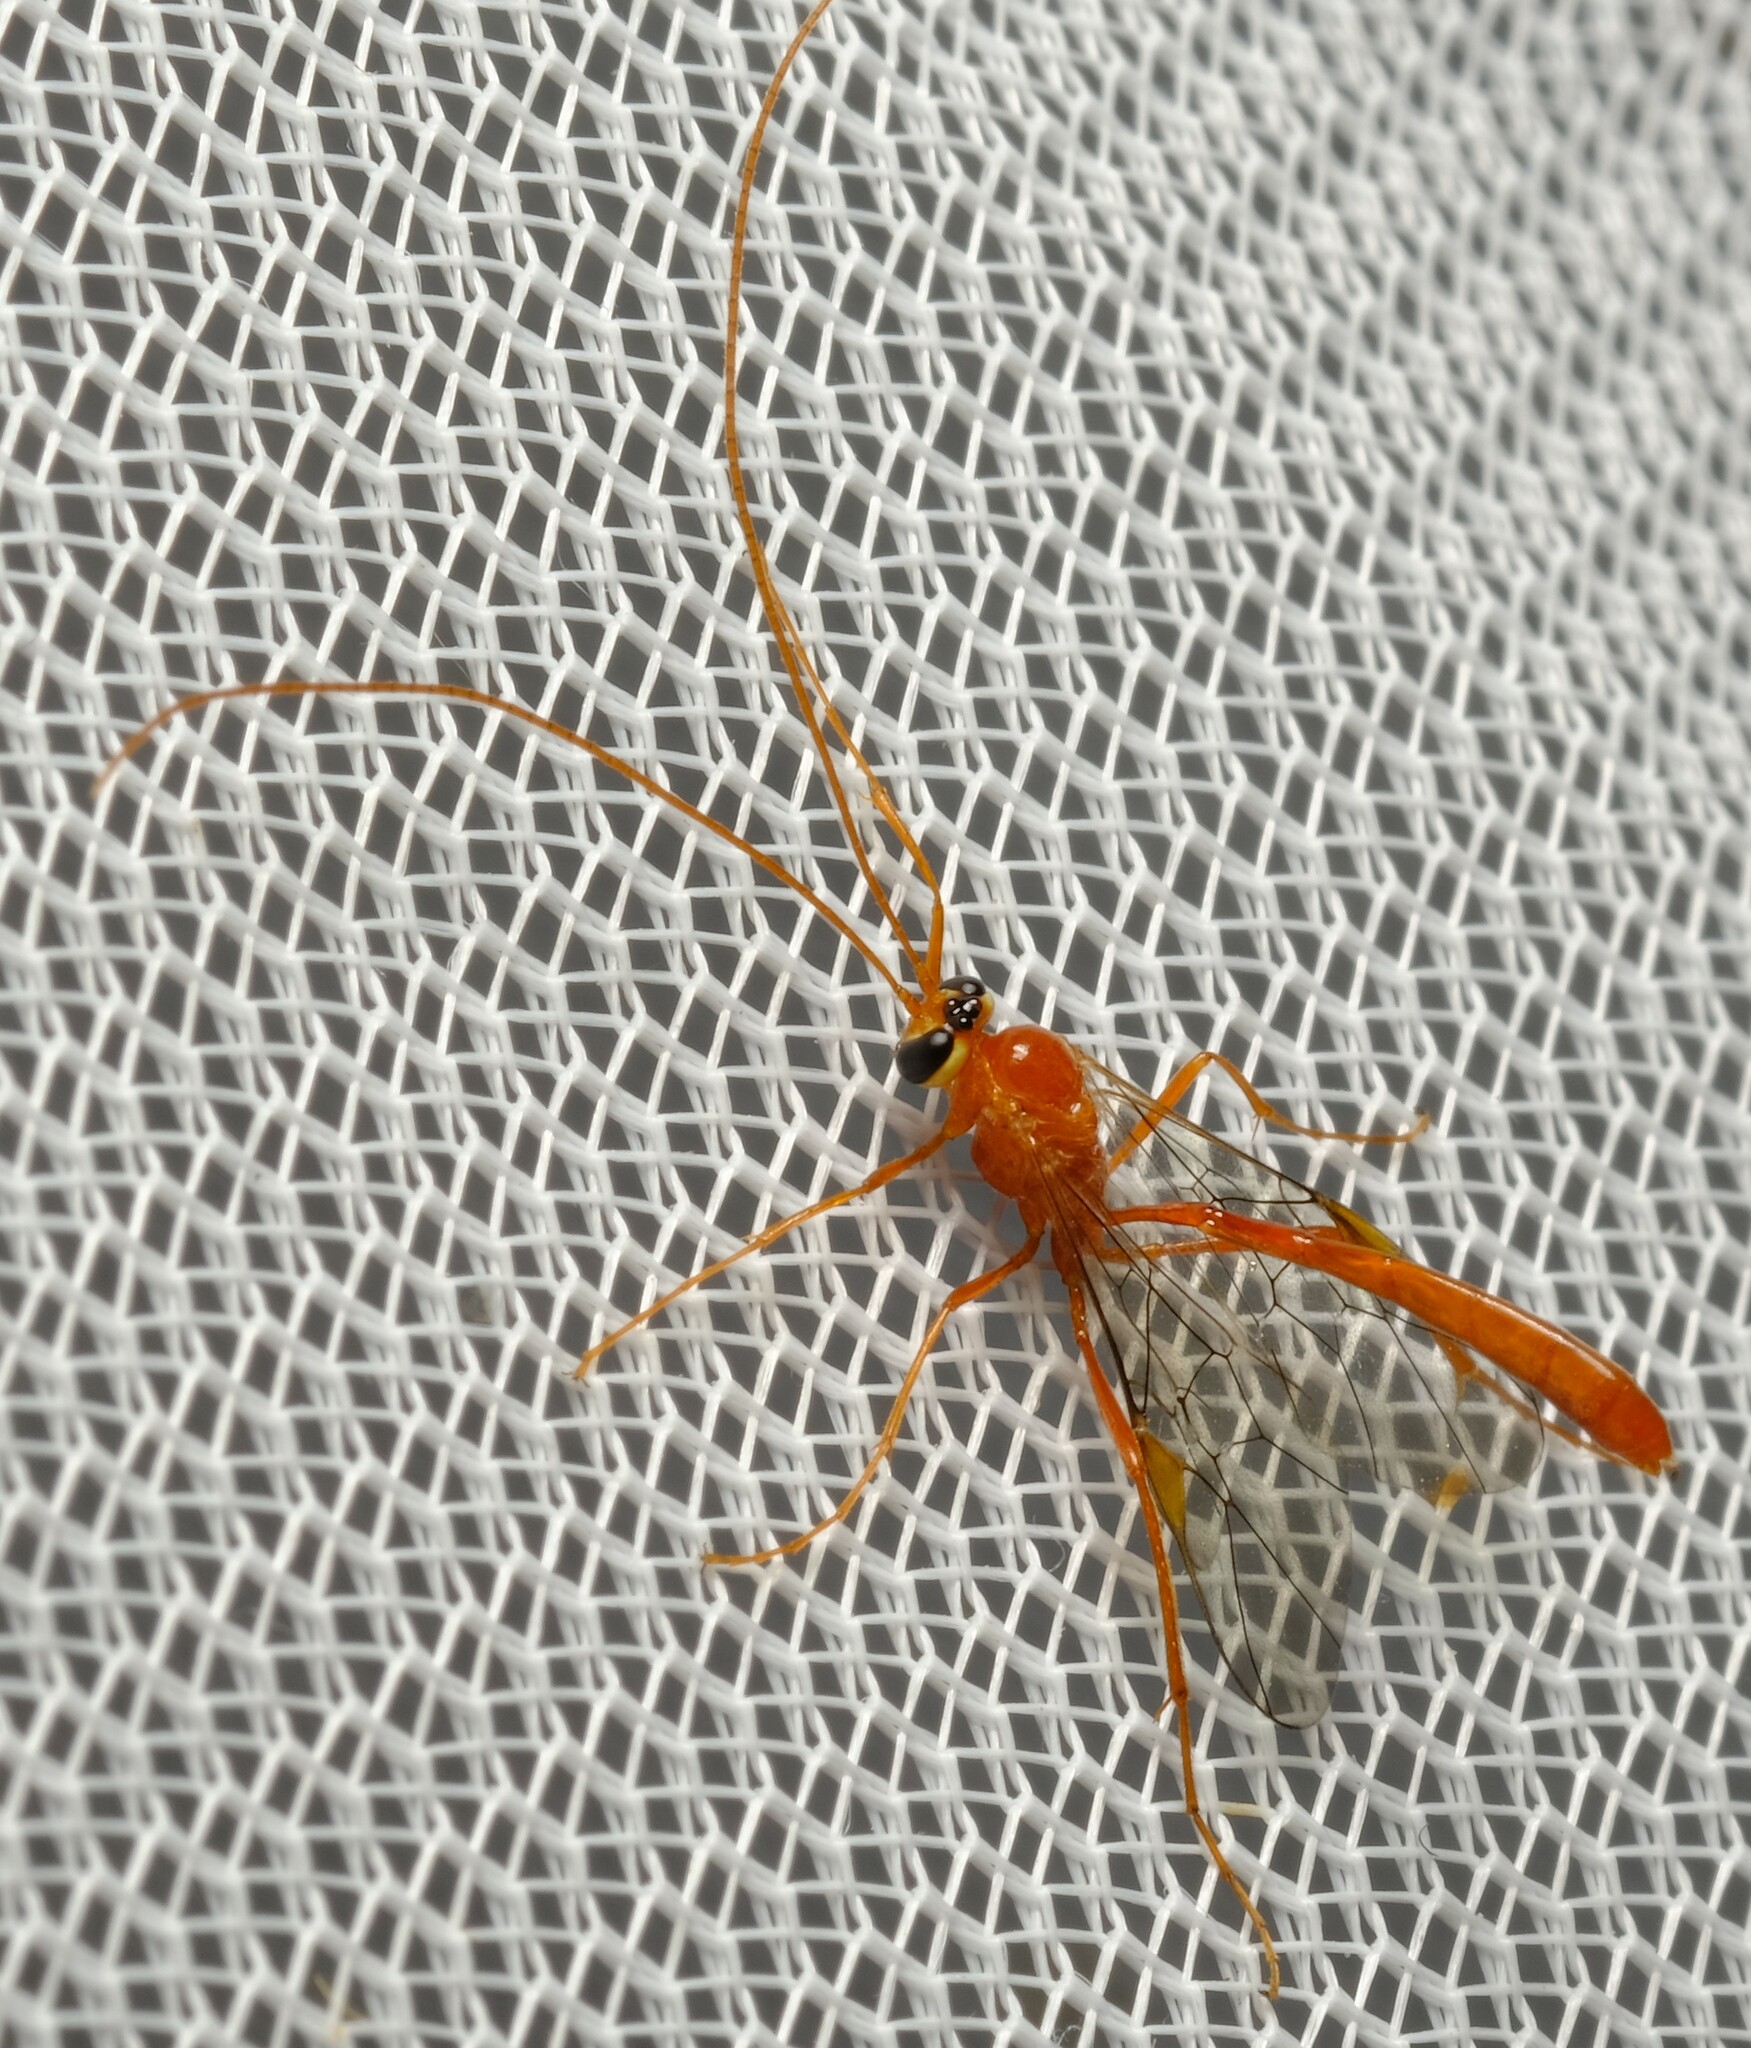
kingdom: Animalia
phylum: Arthropoda
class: Insecta
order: Hymenoptera
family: Ichneumonidae
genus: Xylophion
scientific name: Xylophion xylus
